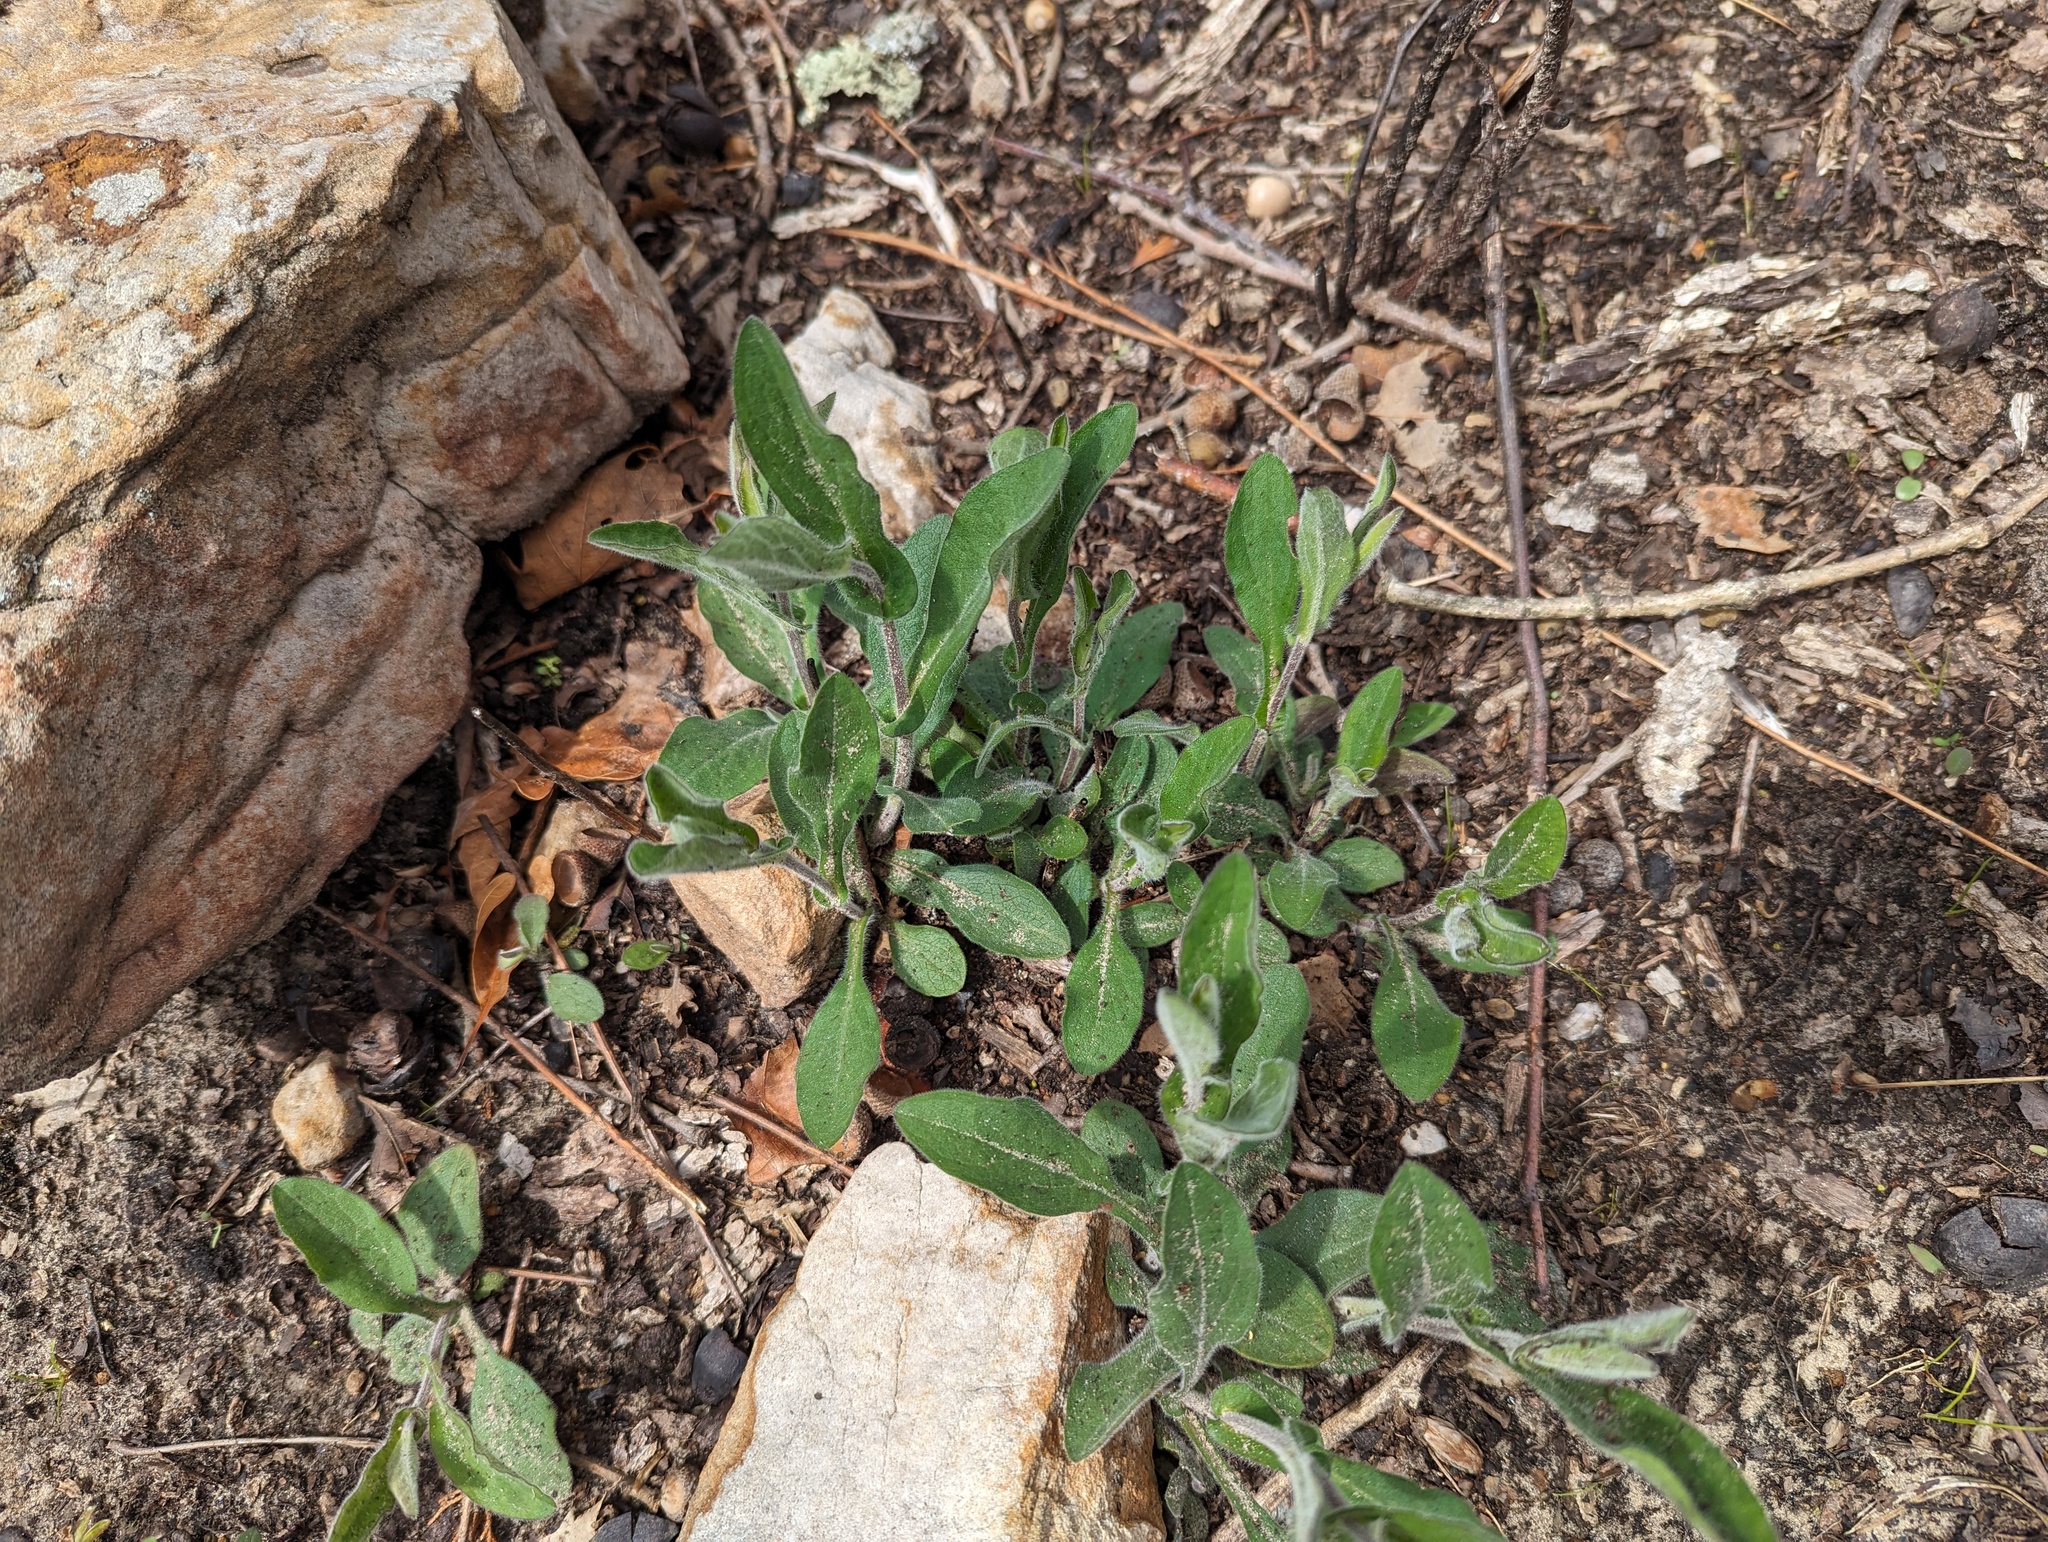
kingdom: Plantae
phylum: Tracheophyta
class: Magnoliopsida
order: Asterales
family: Asteraceae
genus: Symphyotrichum
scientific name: Symphyotrichum patens
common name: Late purple aster
